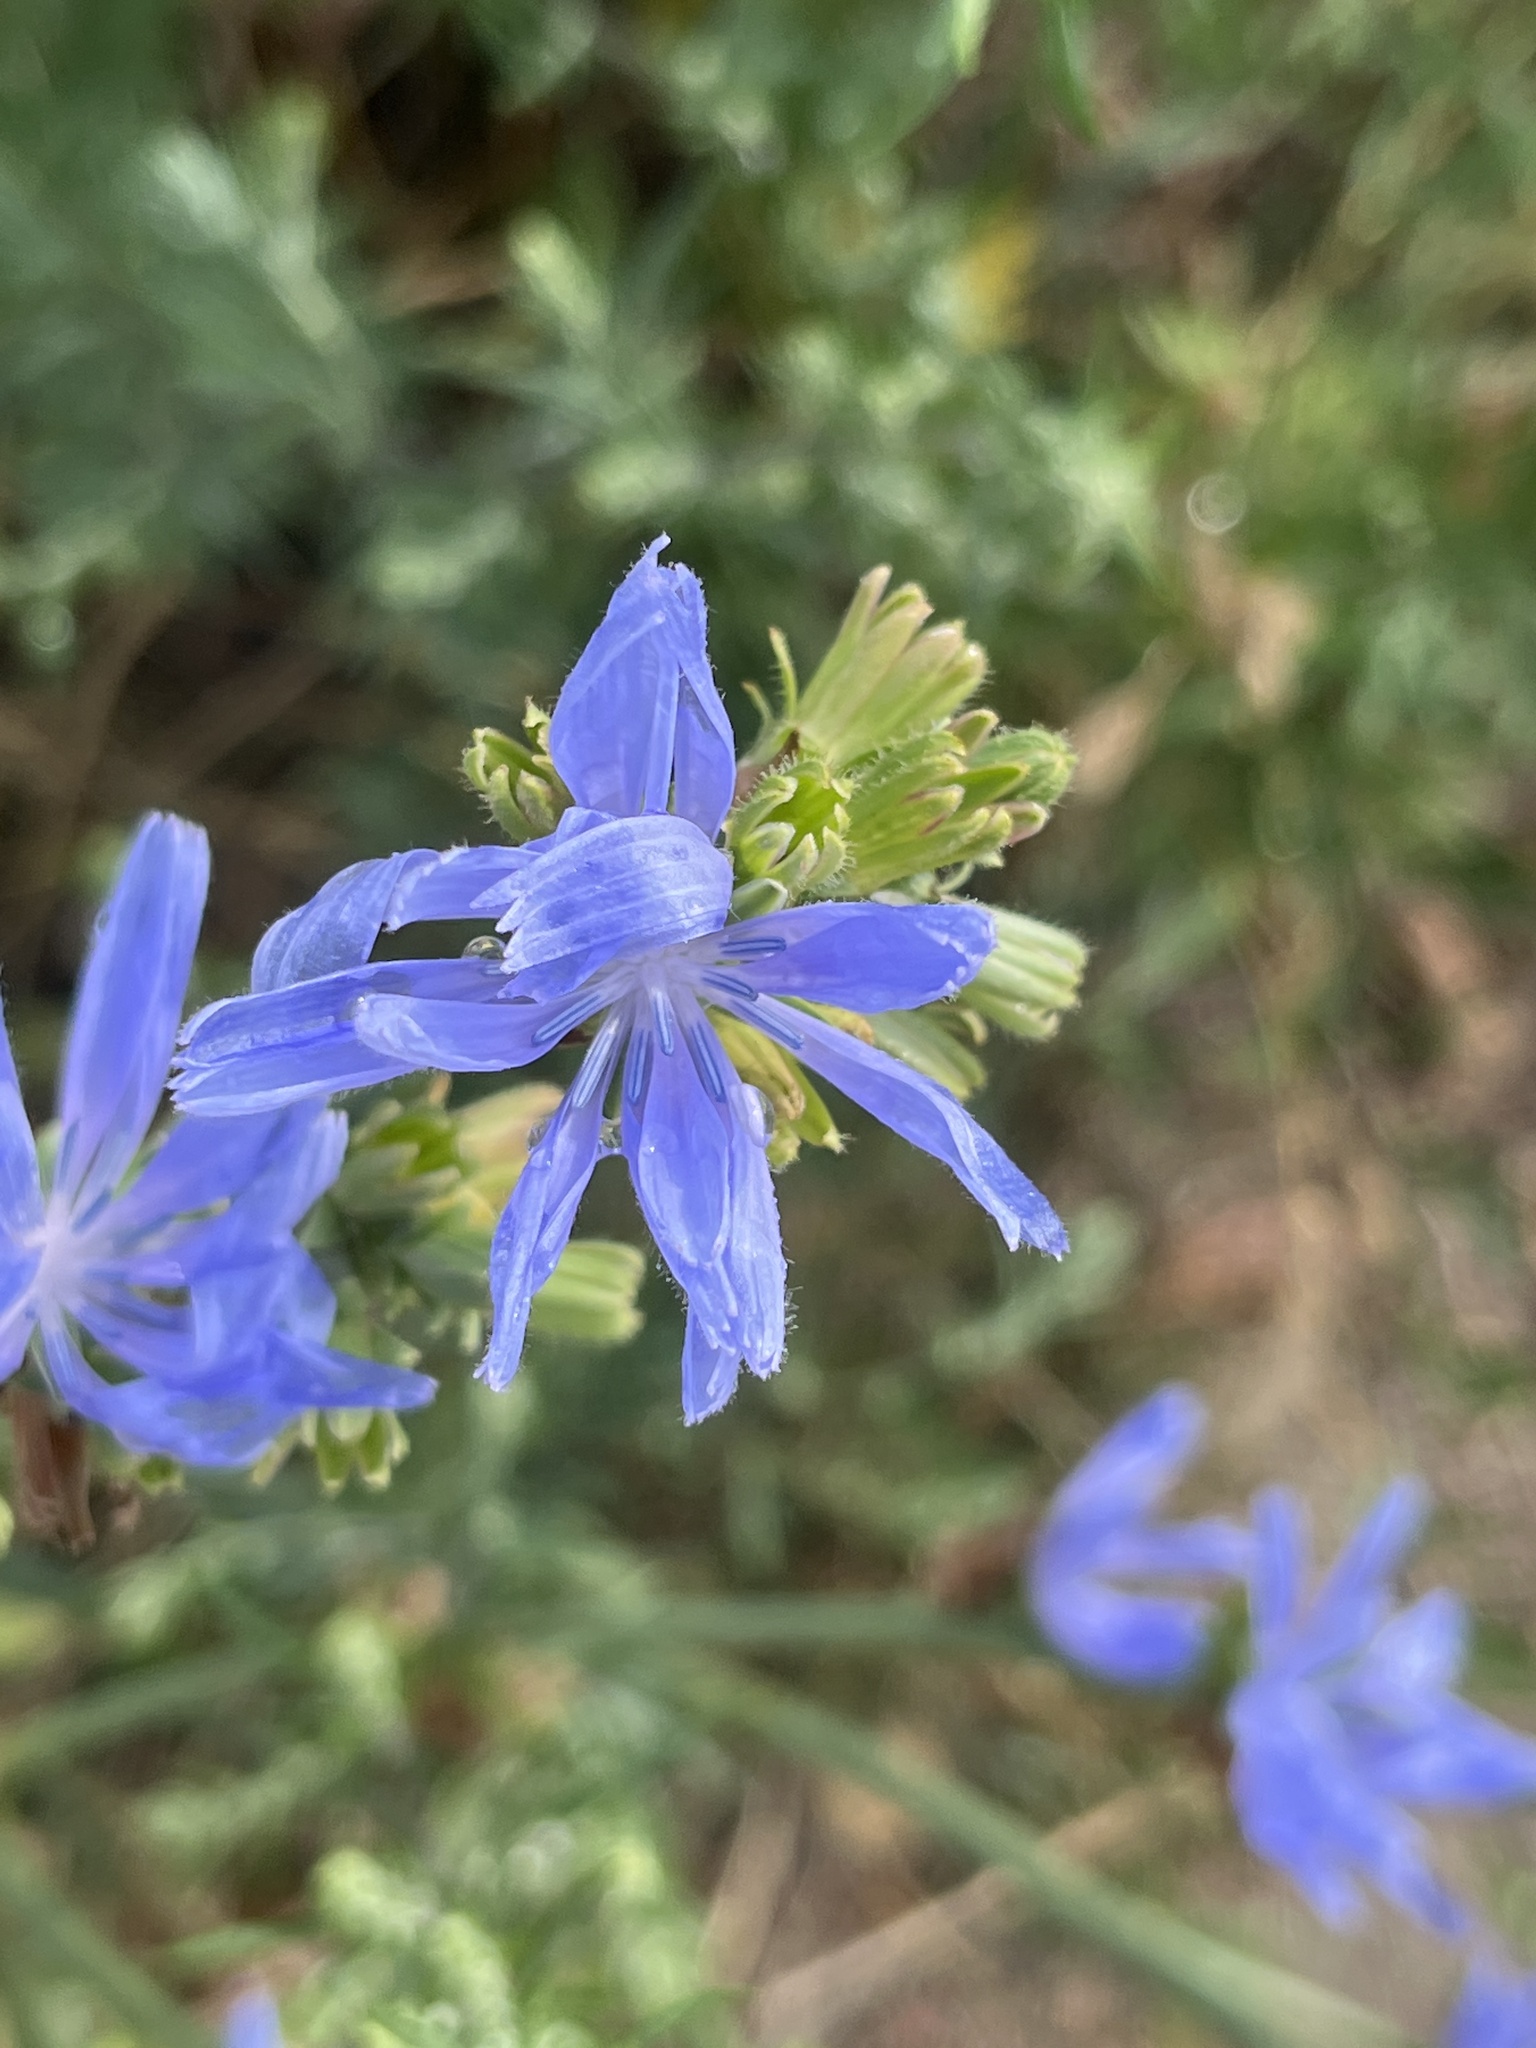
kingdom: Plantae
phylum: Tracheophyta
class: Magnoliopsida
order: Asterales
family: Asteraceae
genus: Cichorium
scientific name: Cichorium intybus
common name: Chicory
